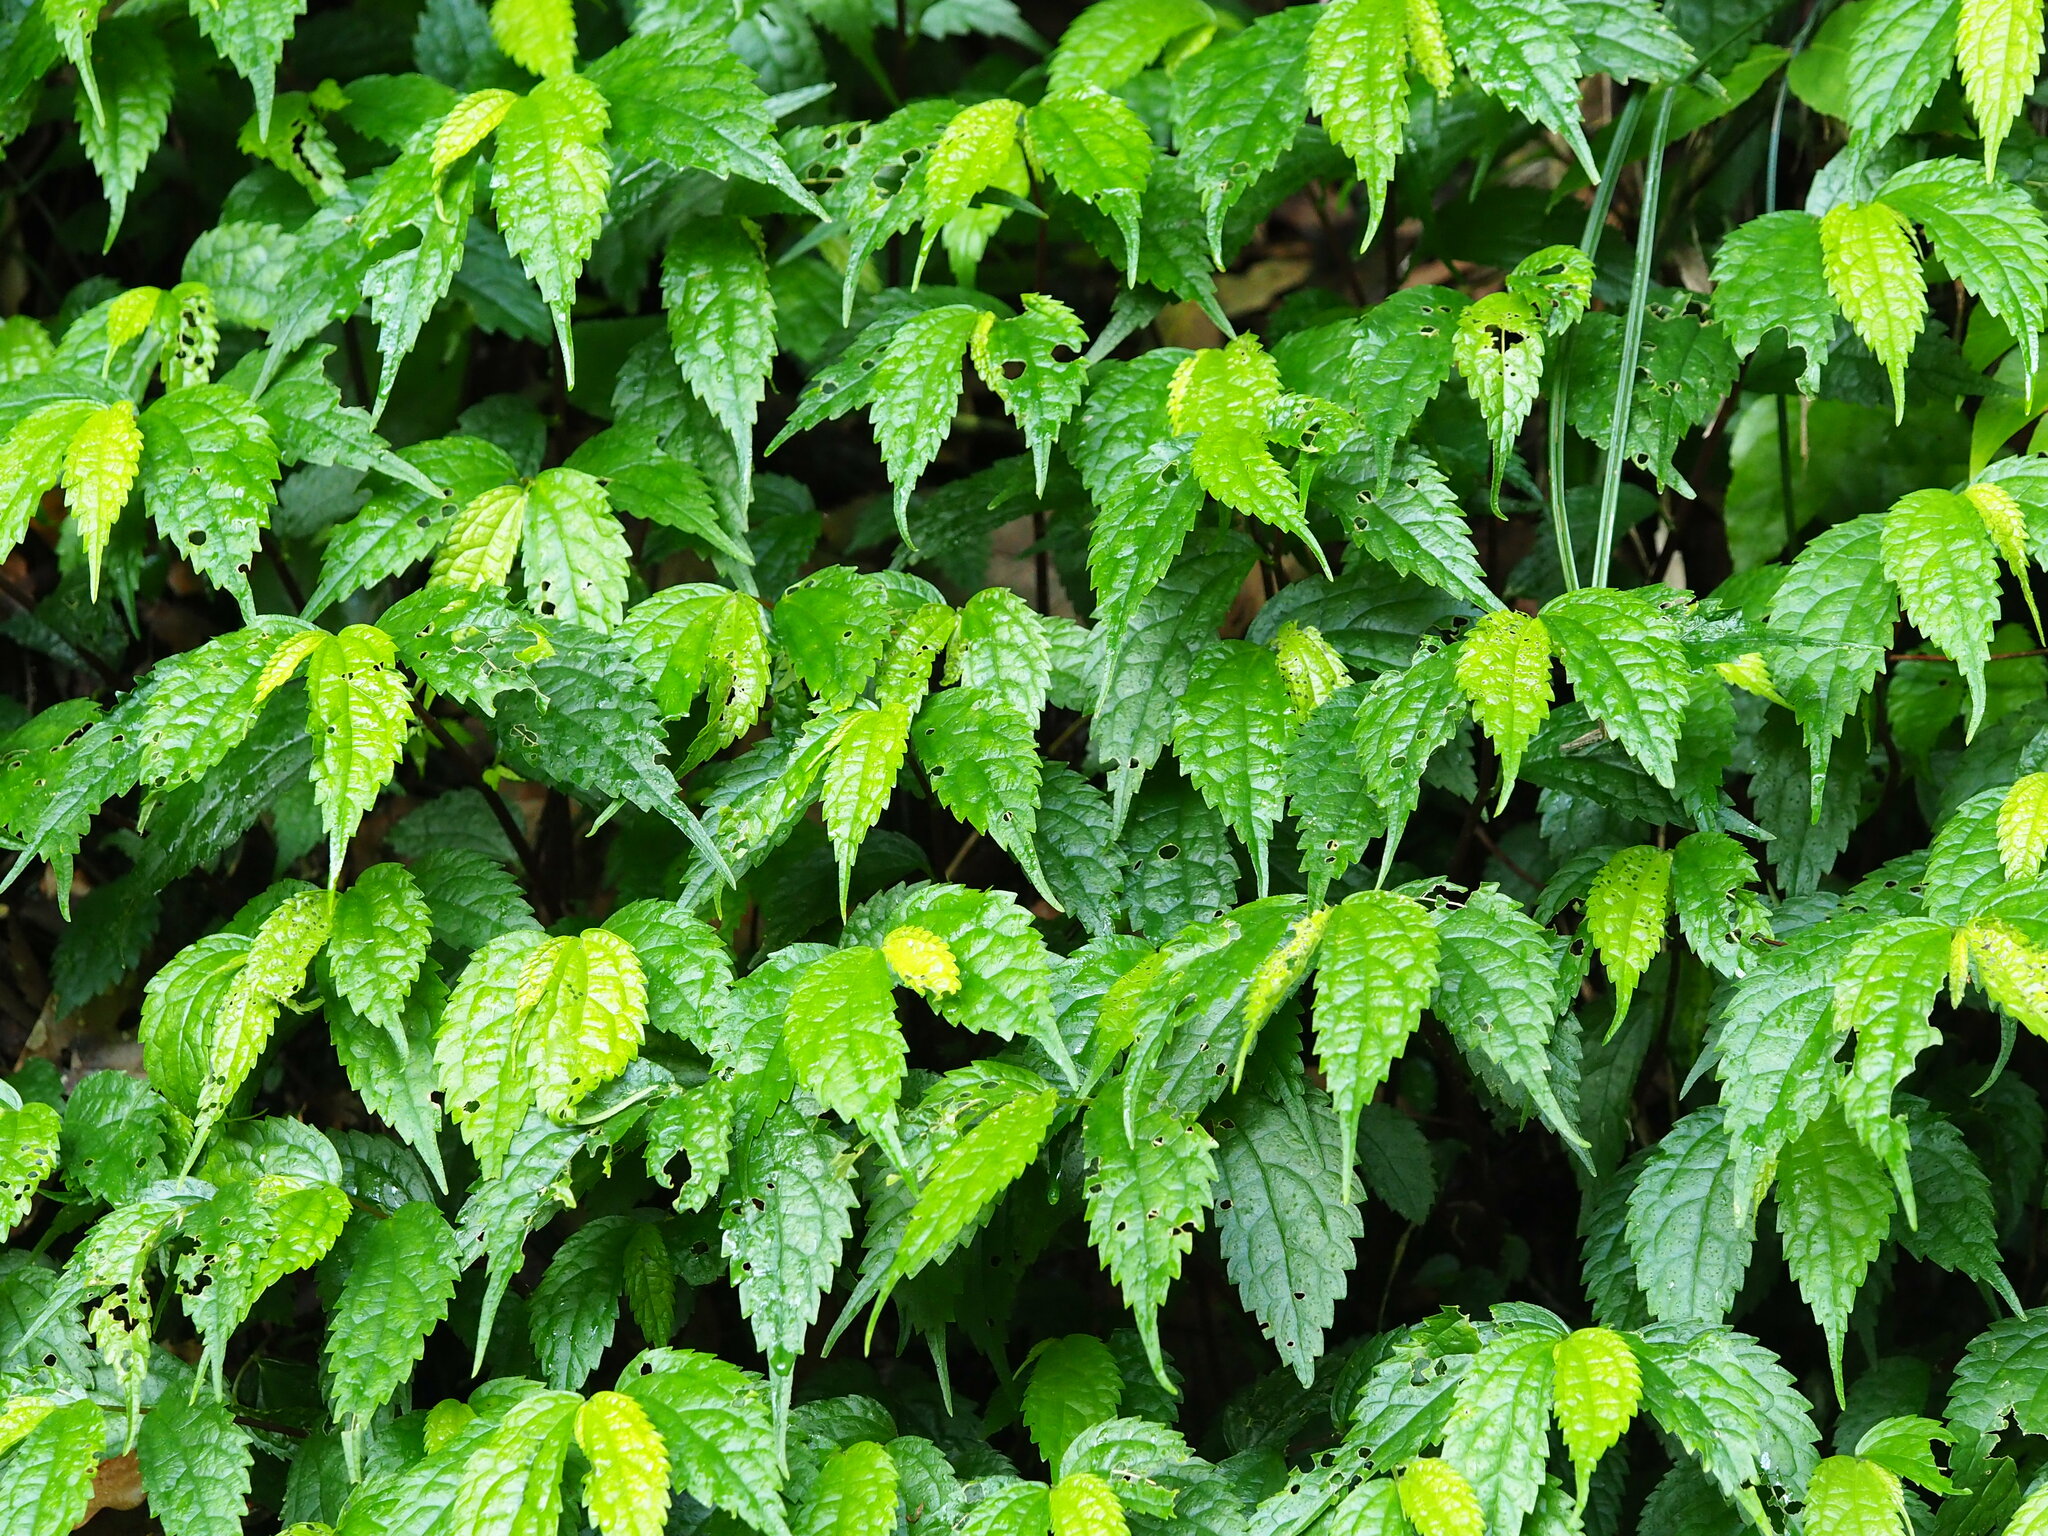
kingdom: Plantae
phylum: Tracheophyta
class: Magnoliopsida
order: Rosales
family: Urticaceae
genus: Elatostema
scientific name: Elatostema cyrtandrifolium
